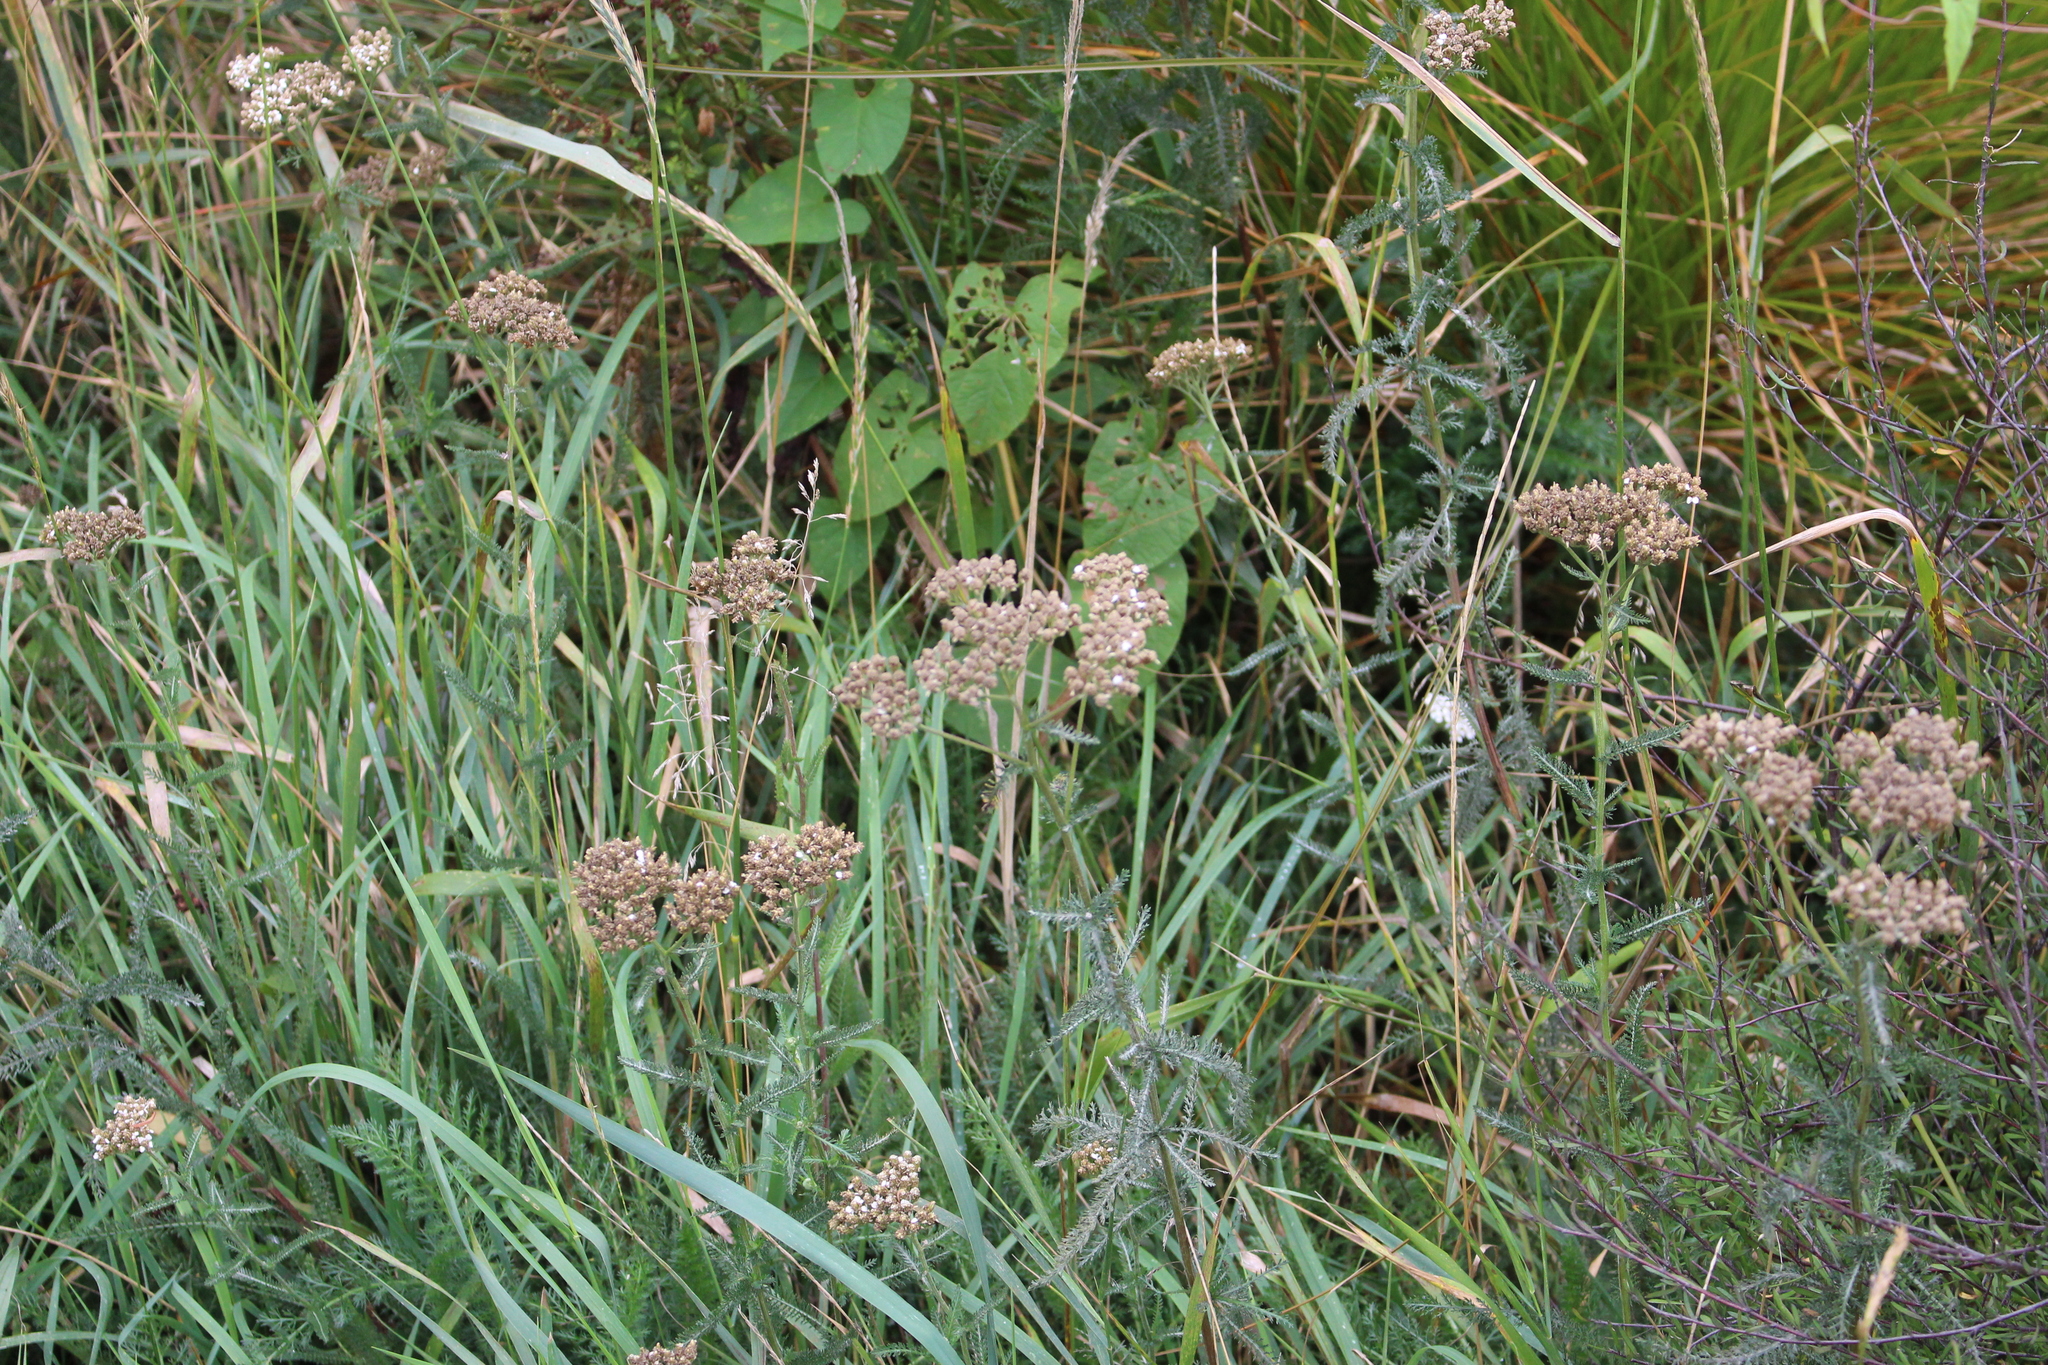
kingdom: Plantae
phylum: Tracheophyta
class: Magnoliopsida
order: Asterales
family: Asteraceae
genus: Achillea
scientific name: Achillea millefolium
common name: Yarrow
